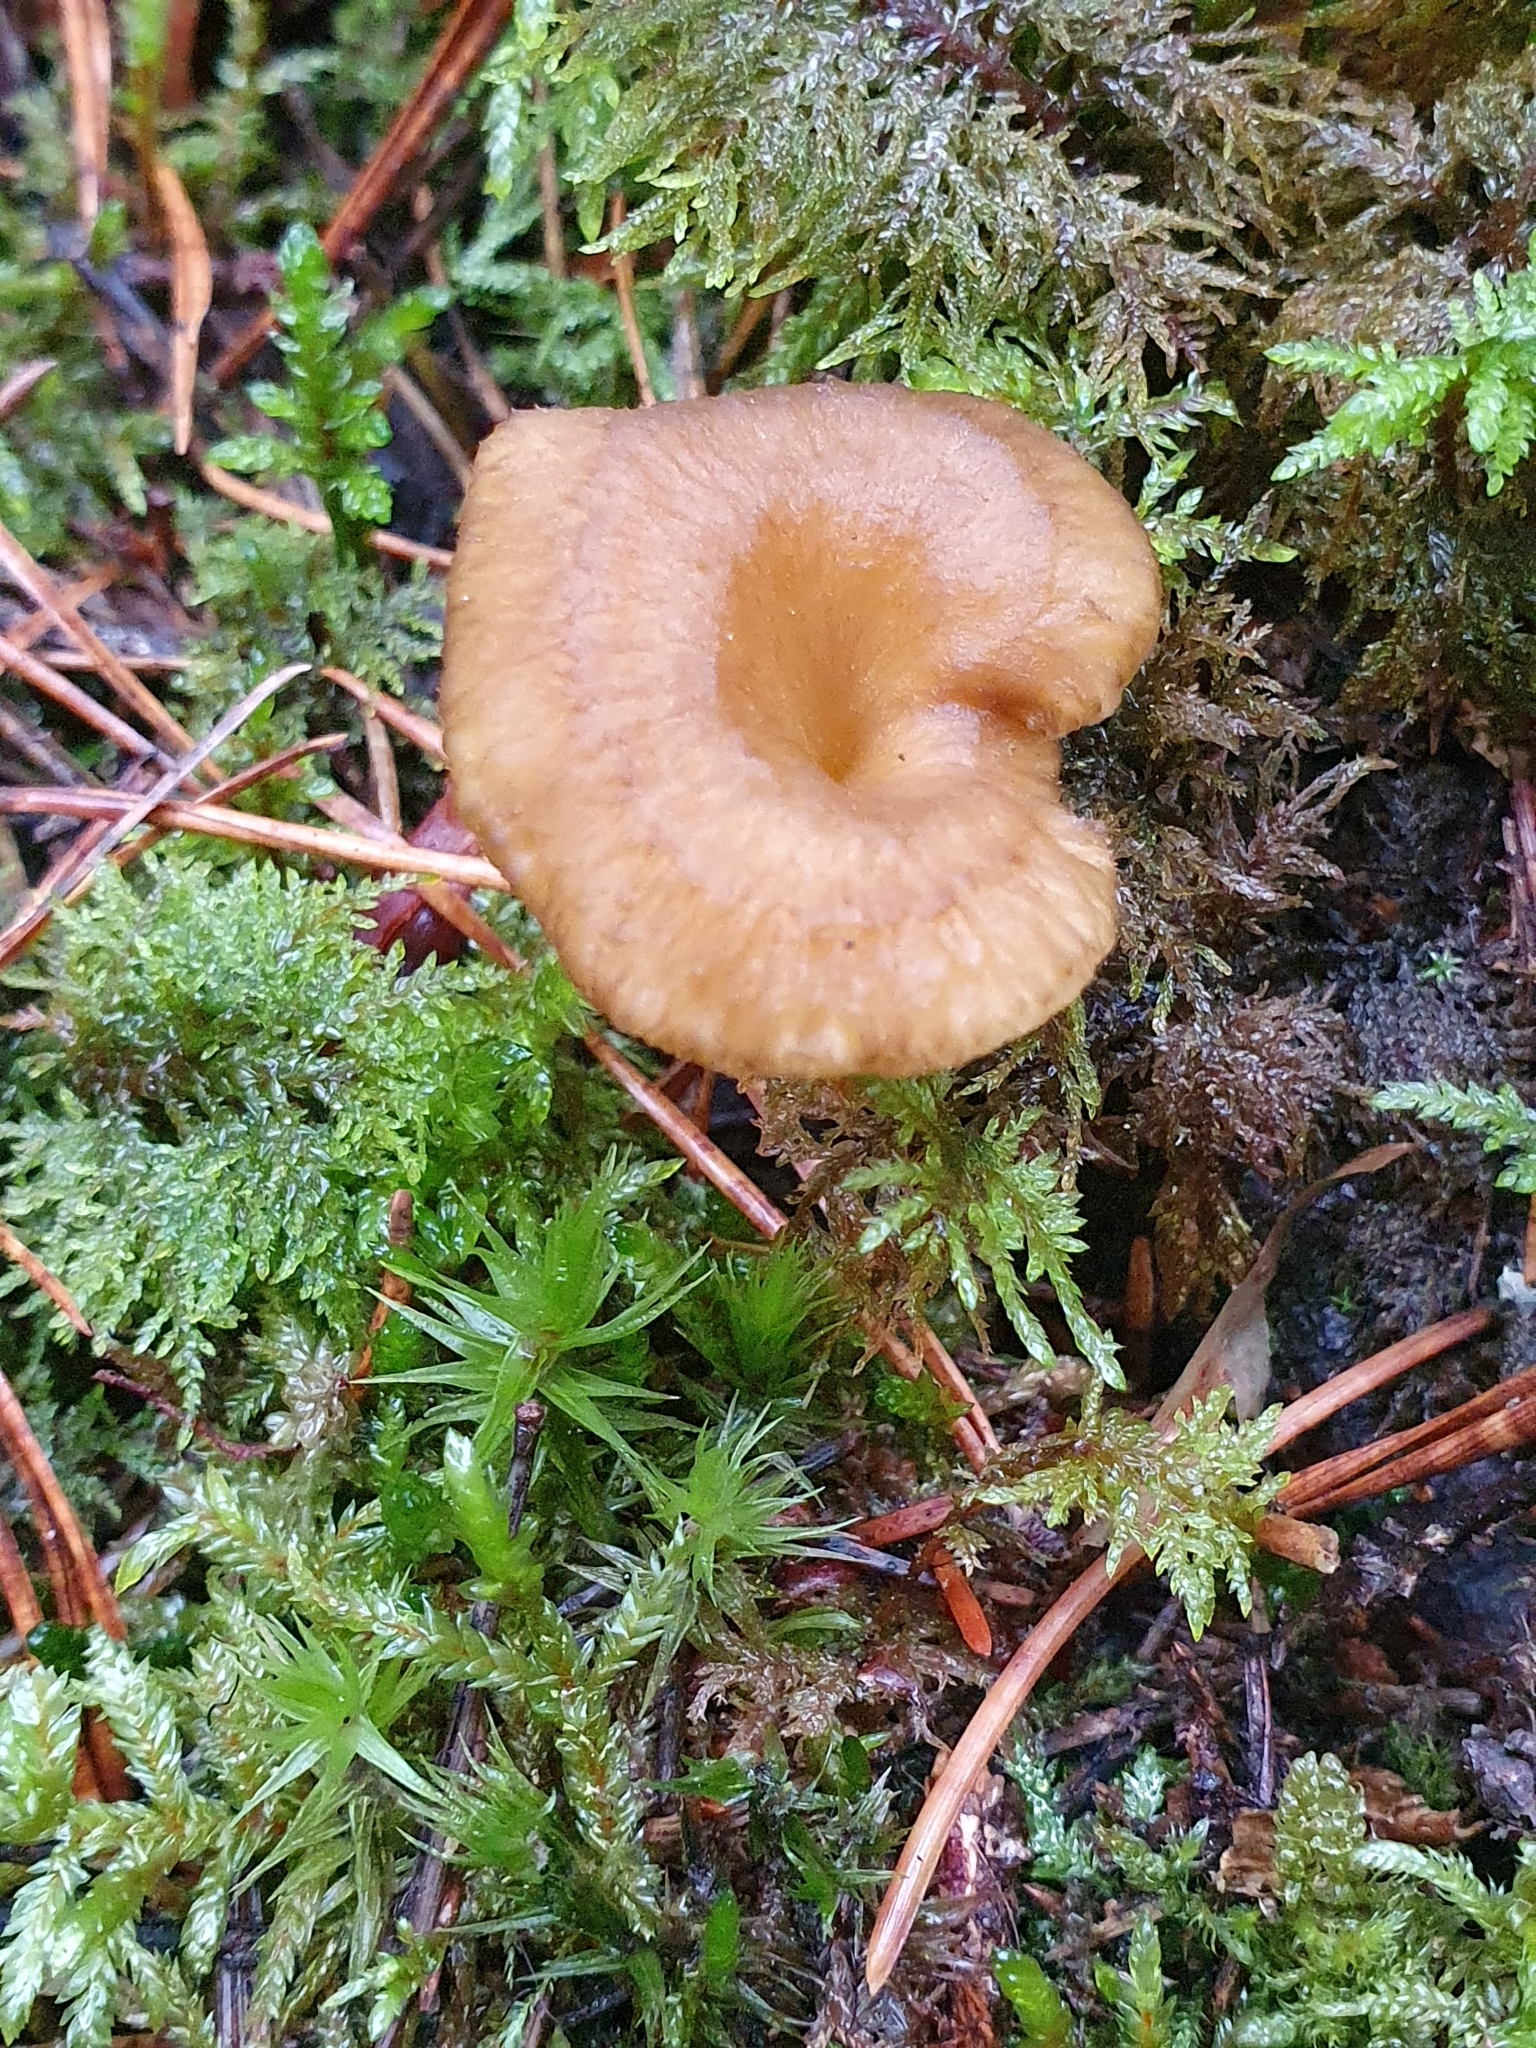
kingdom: Fungi
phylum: Basidiomycota
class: Agaricomycetes
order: Cantharellales
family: Hydnaceae
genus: Craterellus
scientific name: Craterellus tubaeformis
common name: Yellowfoot
